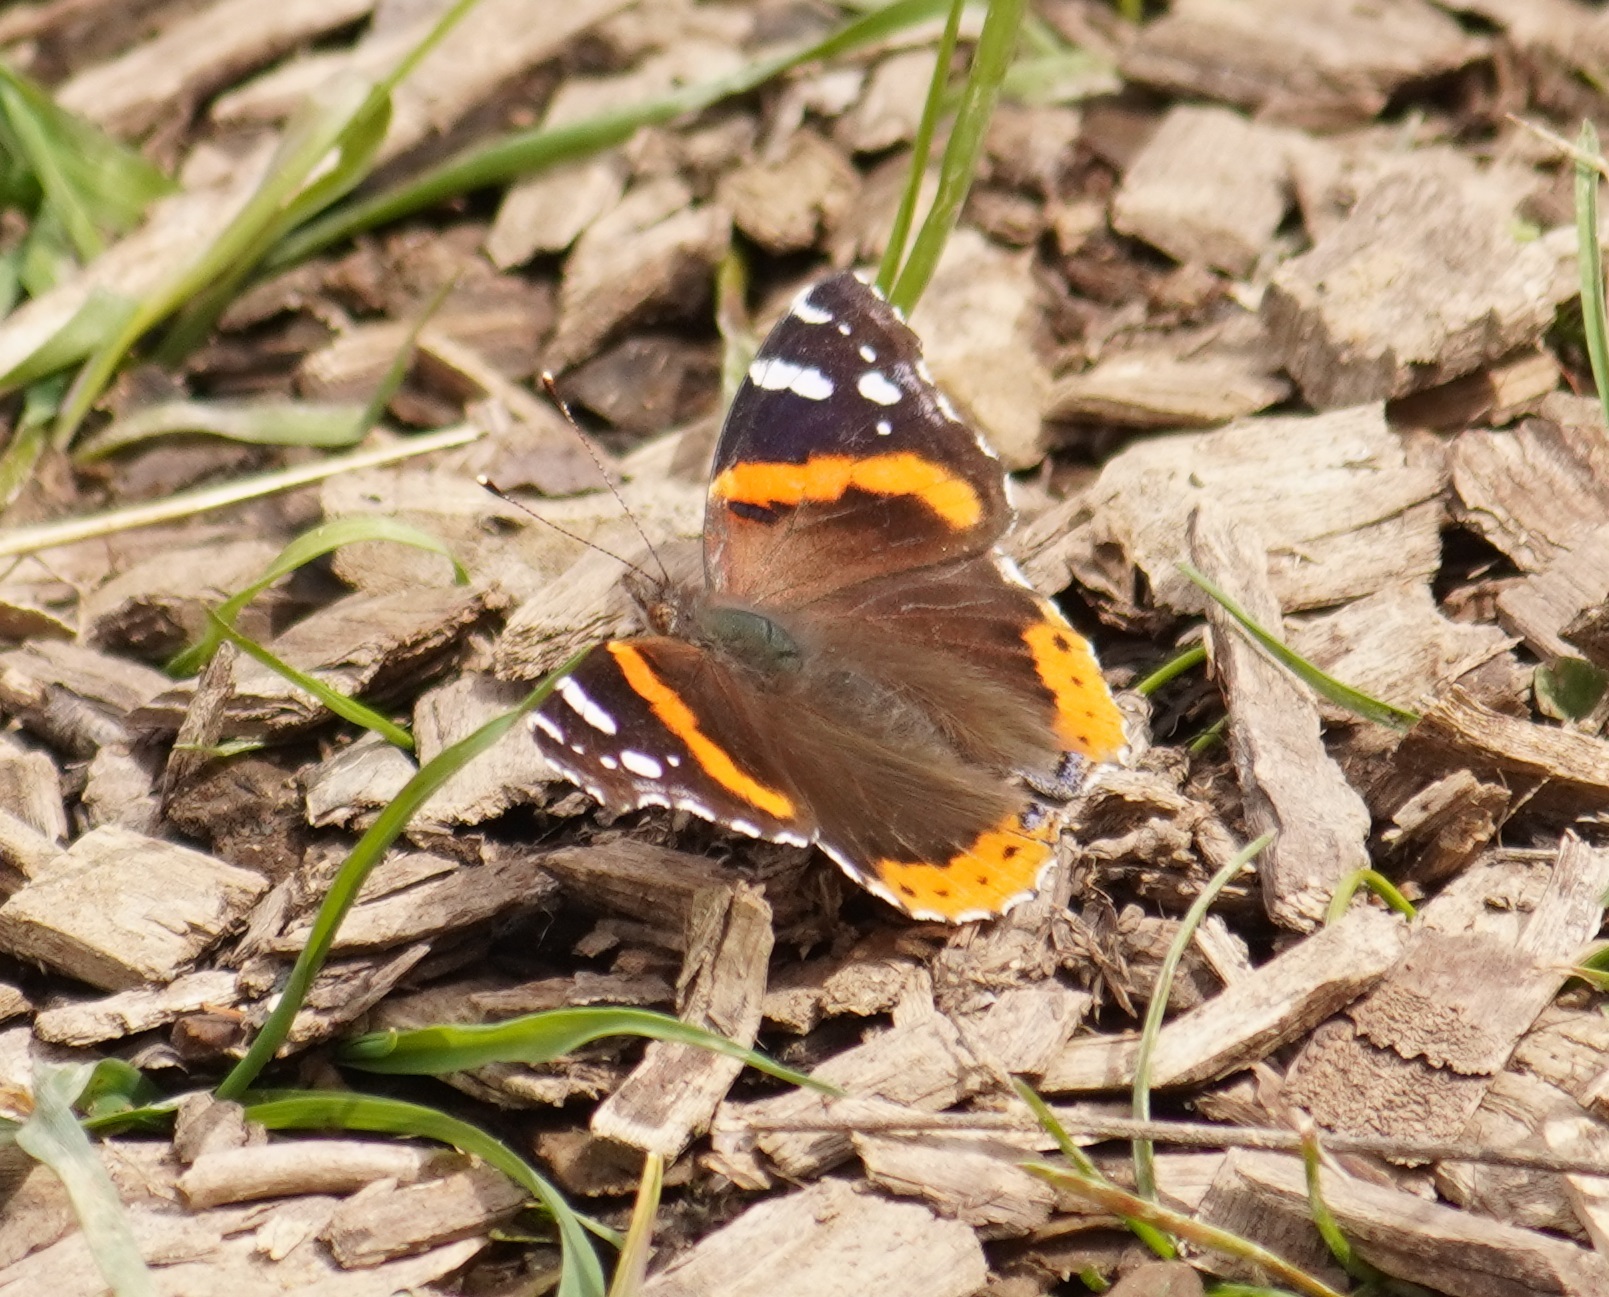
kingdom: Animalia
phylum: Arthropoda
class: Insecta
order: Lepidoptera
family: Nymphalidae
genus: Vanessa
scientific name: Vanessa atalanta
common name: Red admiral
